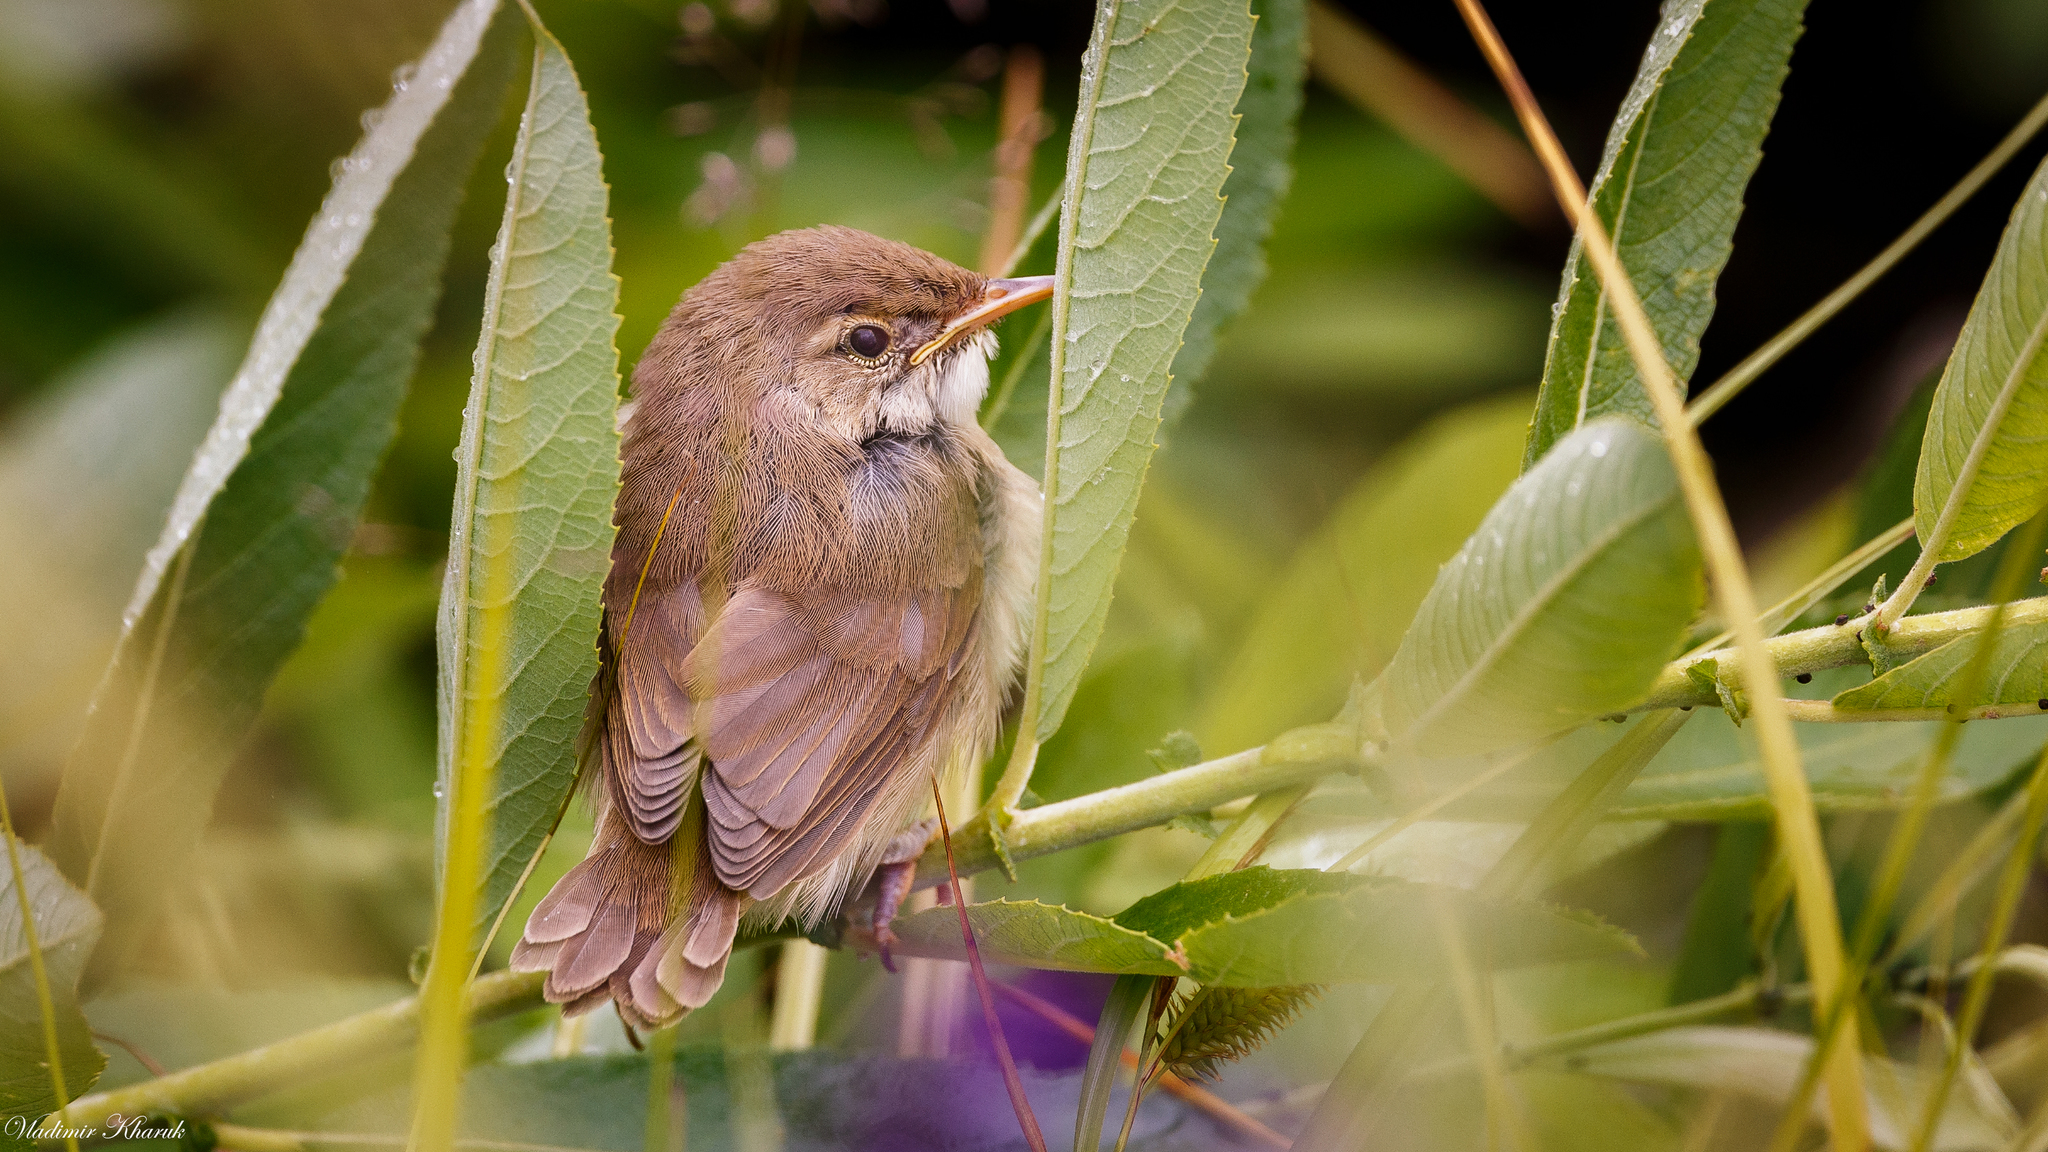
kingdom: Animalia
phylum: Chordata
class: Aves
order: Passeriformes
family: Acrocephalidae
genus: Acrocephalus
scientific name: Acrocephalus dumetorum
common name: Blyth's reed warbler
